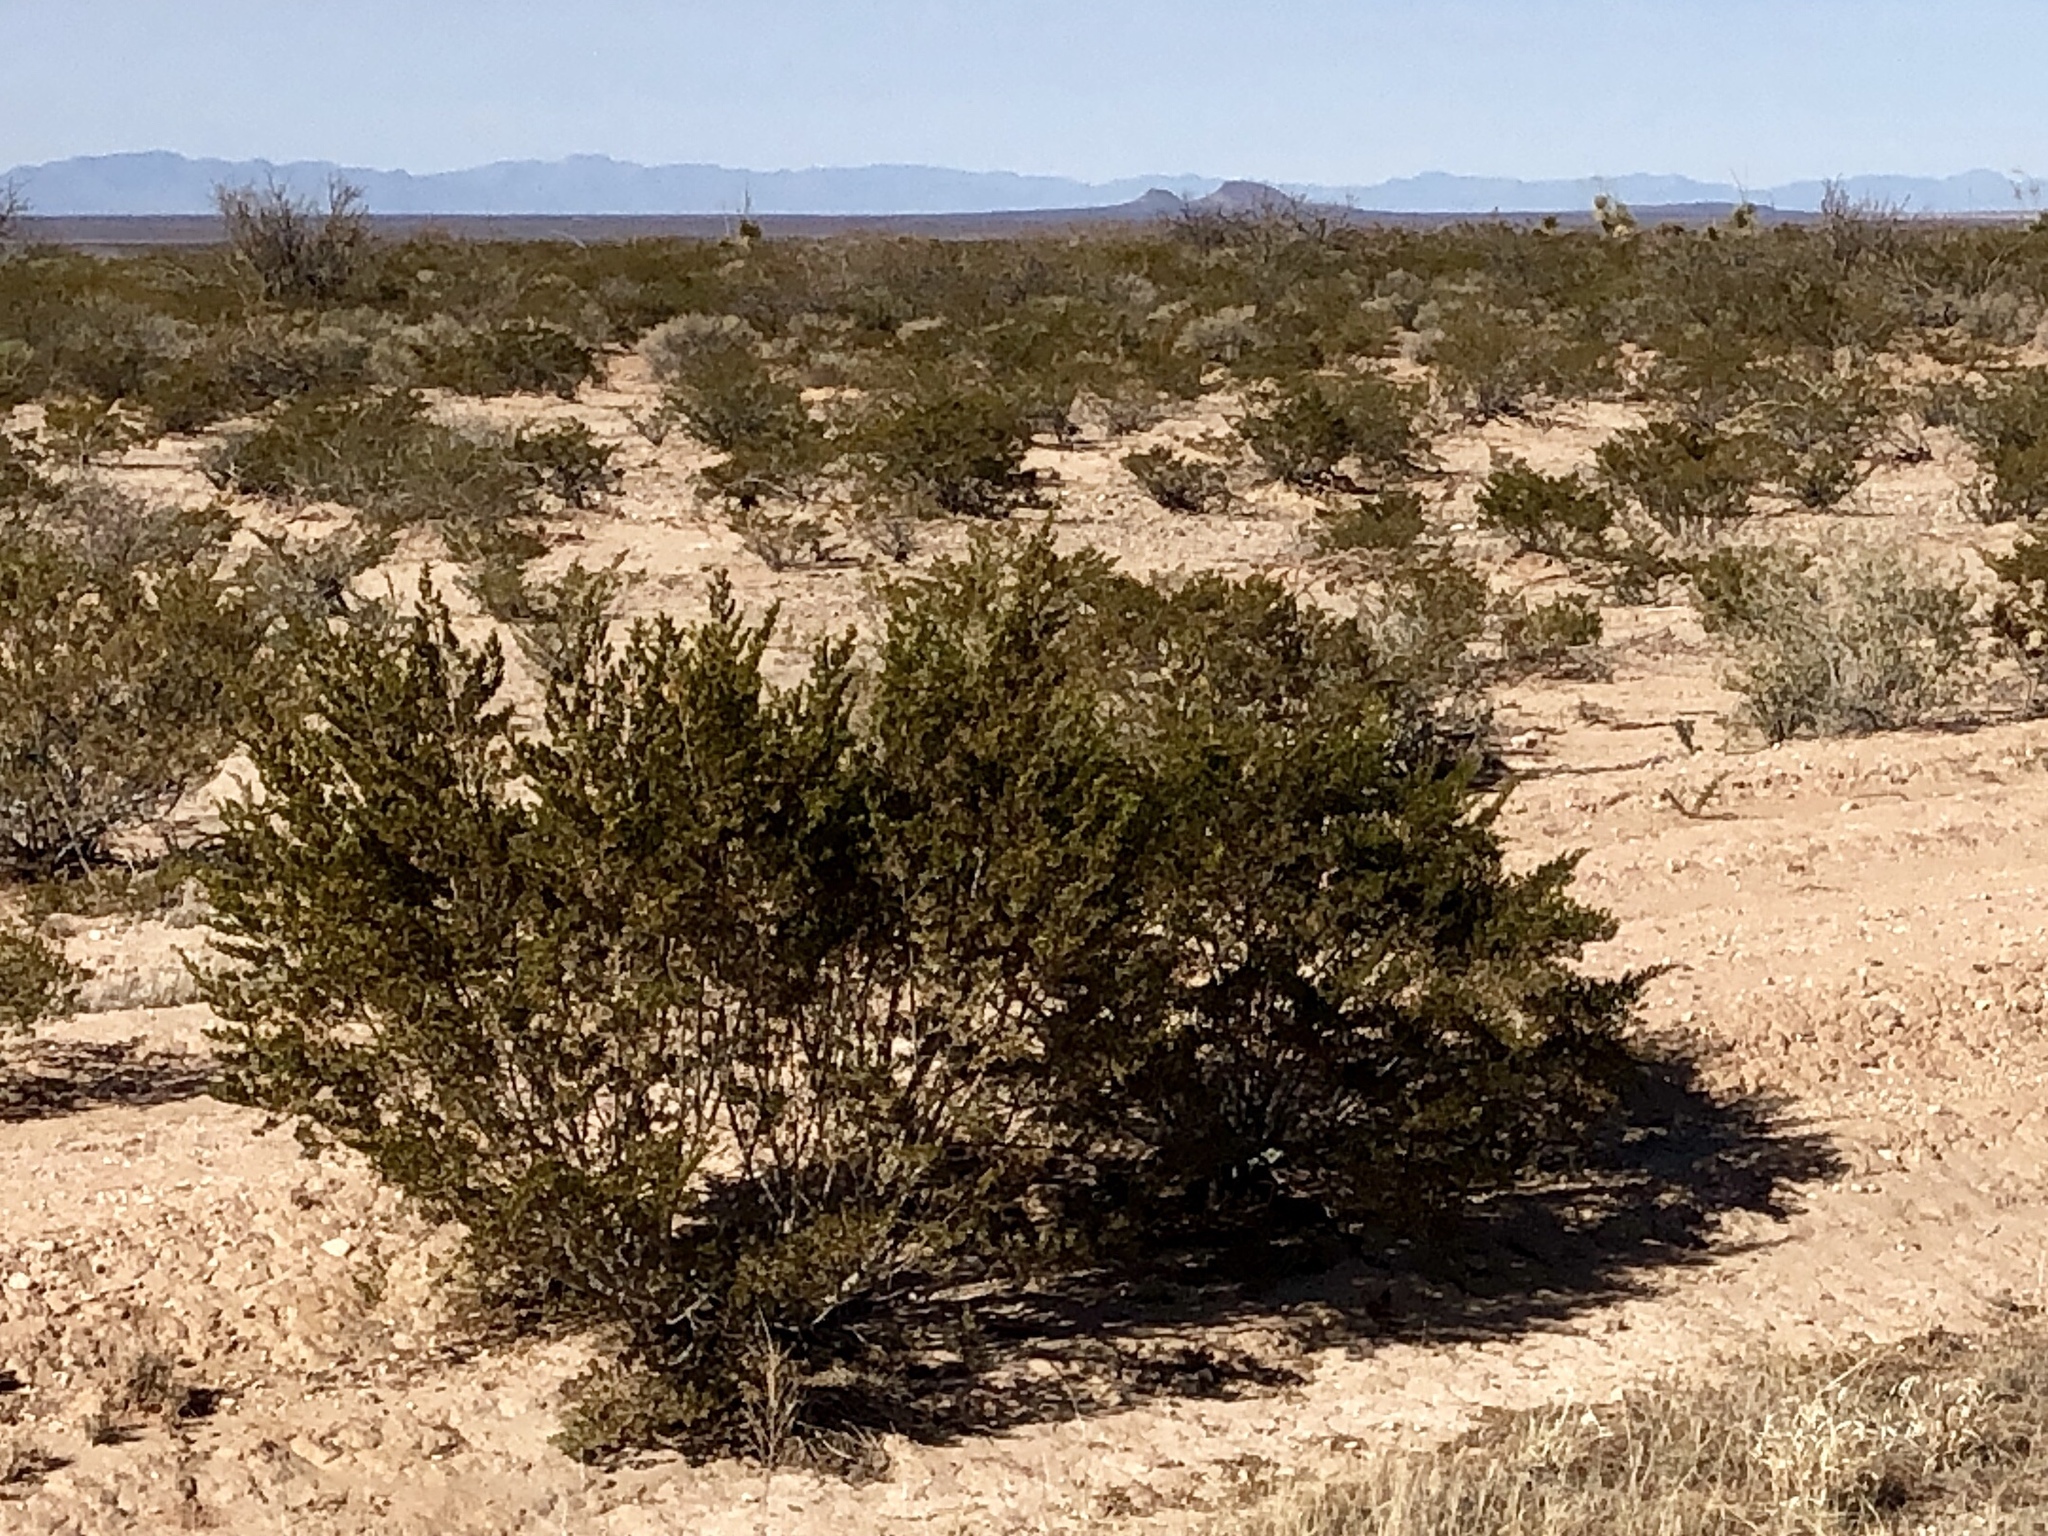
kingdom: Plantae
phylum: Tracheophyta
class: Magnoliopsida
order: Zygophyllales
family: Zygophyllaceae
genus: Larrea
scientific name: Larrea tridentata
